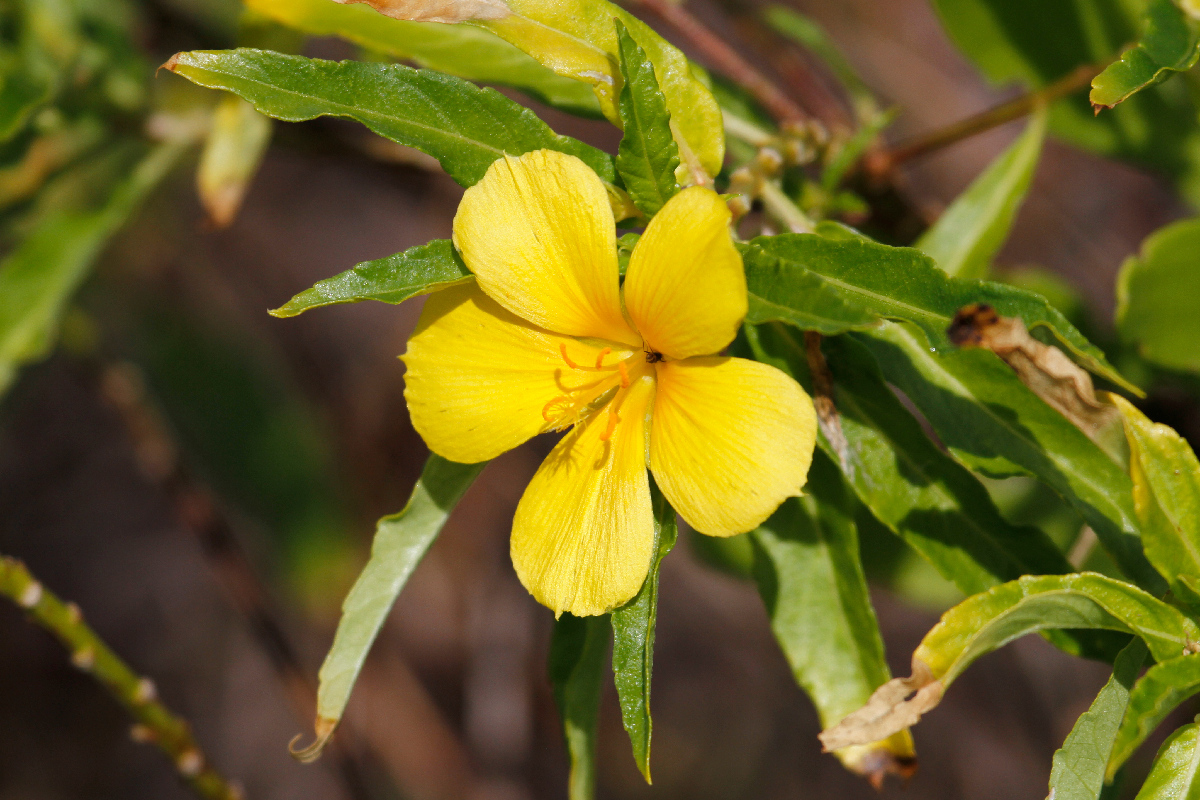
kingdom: Plantae
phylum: Tracheophyta
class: Magnoliopsida
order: Malpighiales
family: Turneraceae
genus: Turnera
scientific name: Turnera ulmifolia
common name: Ramgoat dashalong
